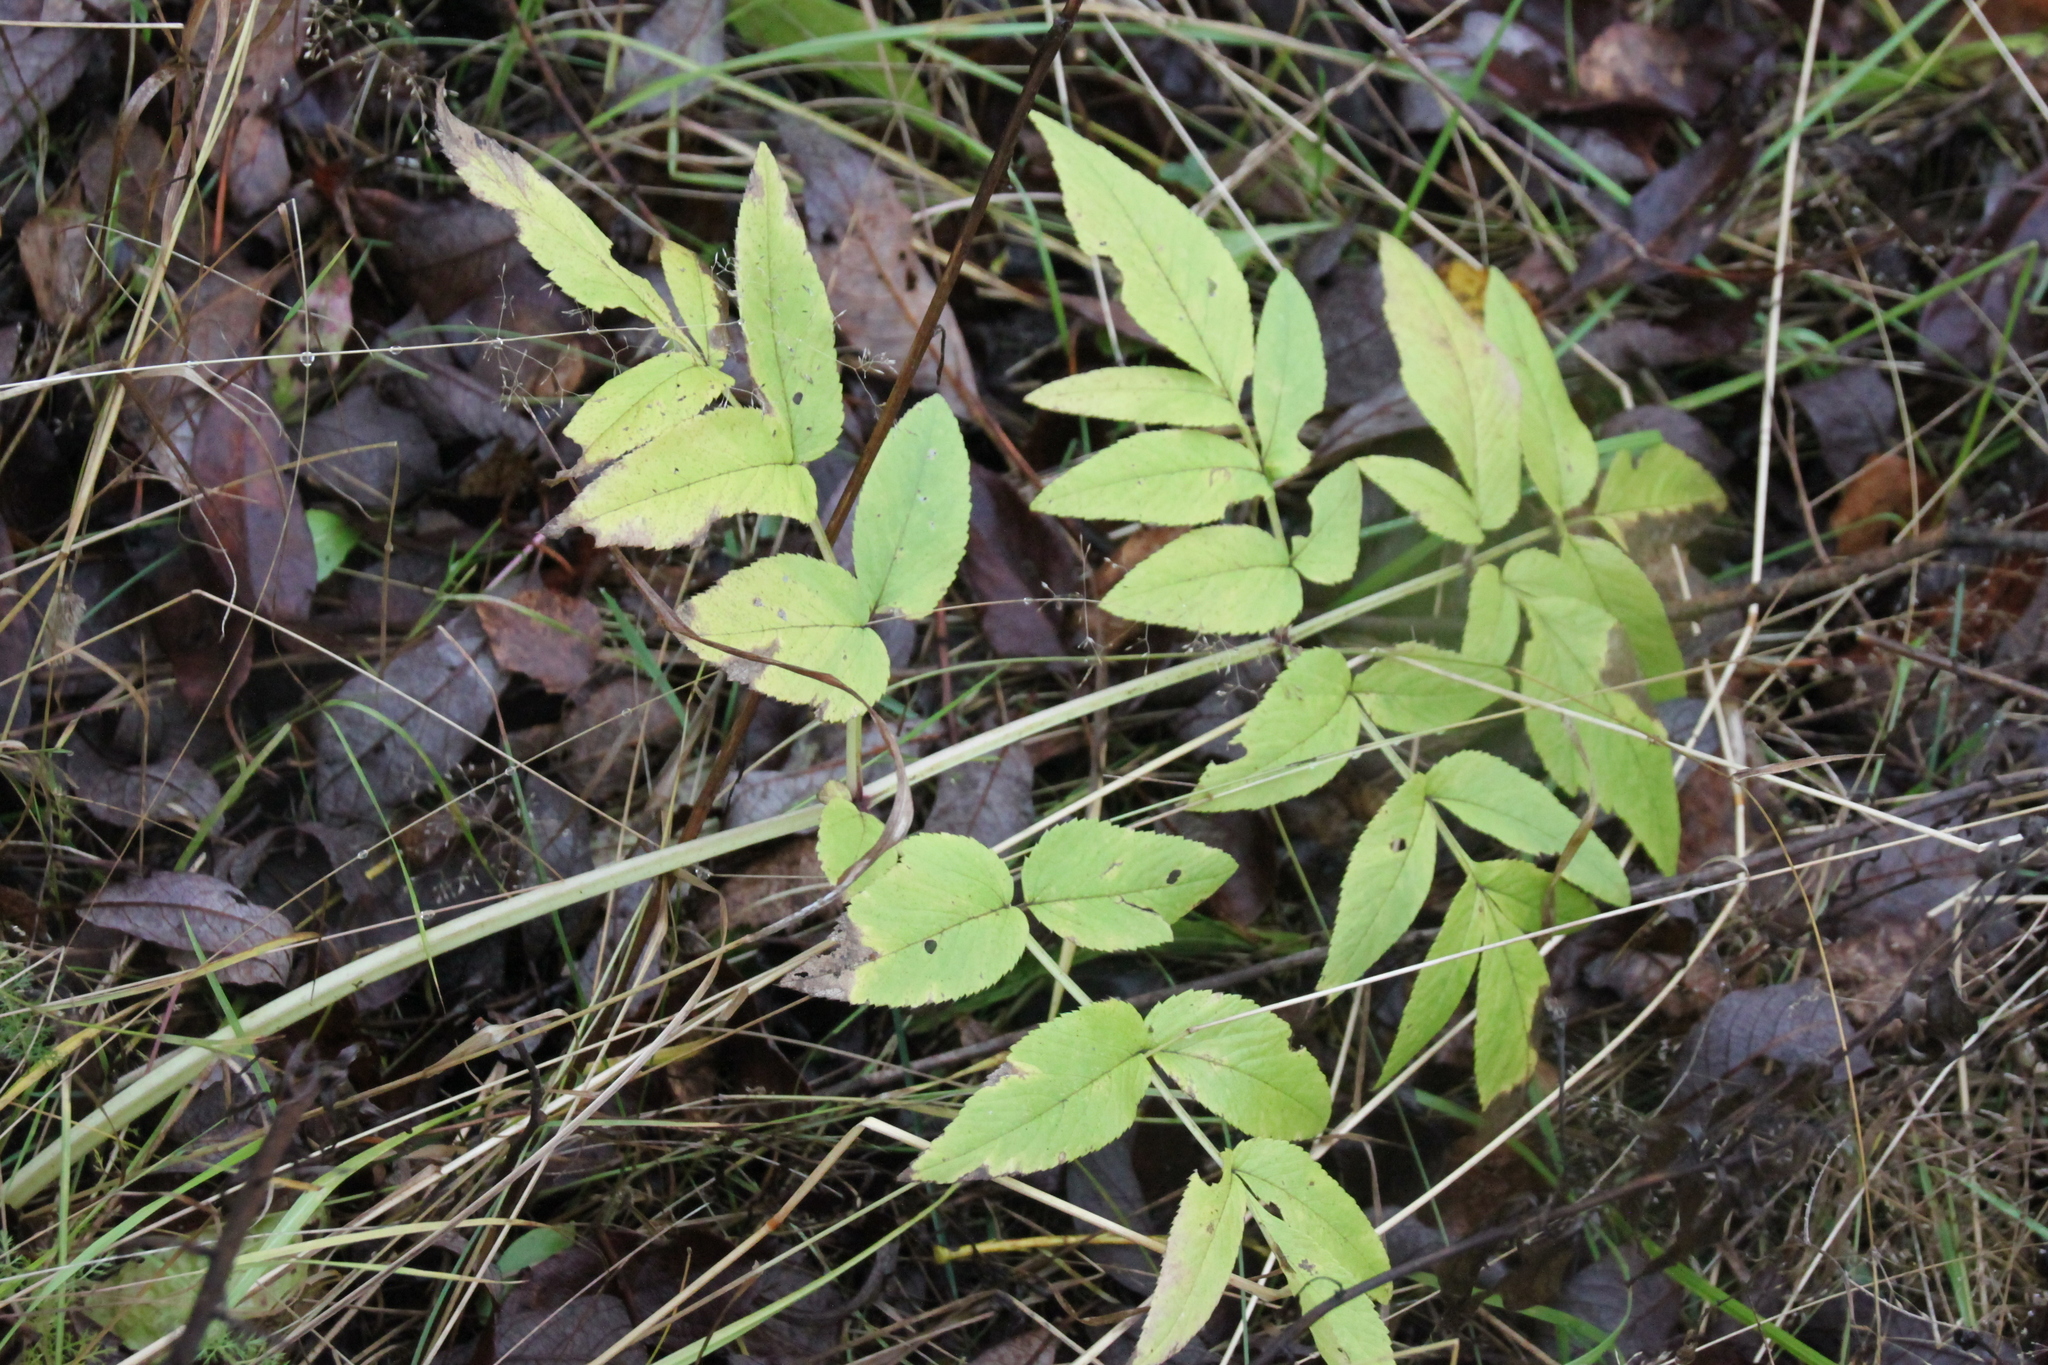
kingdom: Plantae
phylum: Tracheophyta
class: Magnoliopsida
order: Apiales
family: Apiaceae
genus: Angelica
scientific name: Angelica sylvestris
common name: Wild angelica
